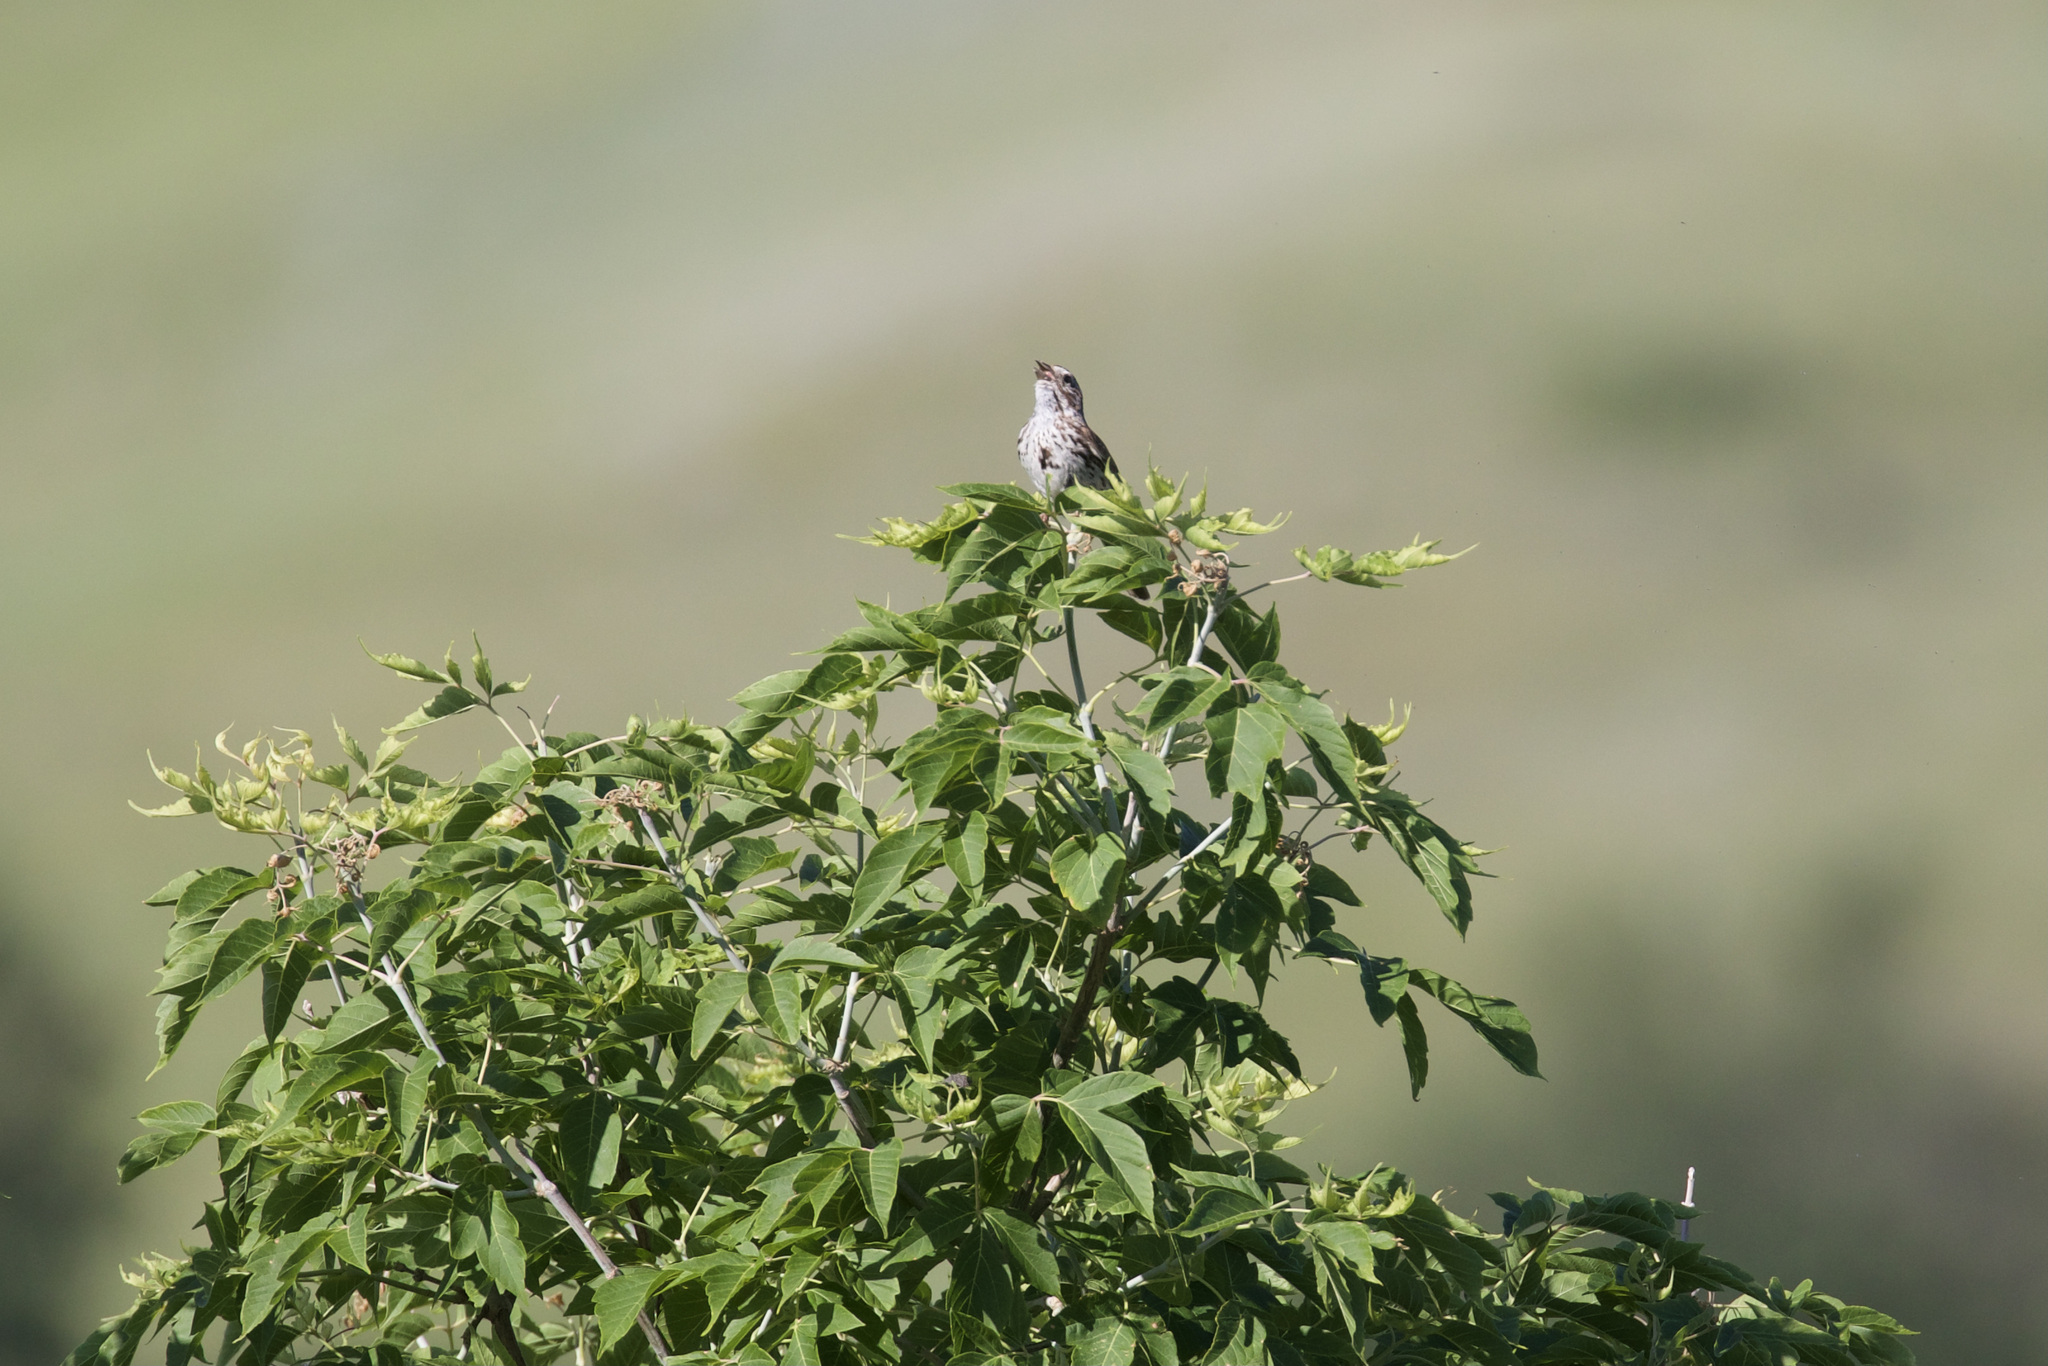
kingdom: Animalia
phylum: Chordata
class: Aves
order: Passeriformes
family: Passerellidae
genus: Melospiza
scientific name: Melospiza melodia
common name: Song sparrow
